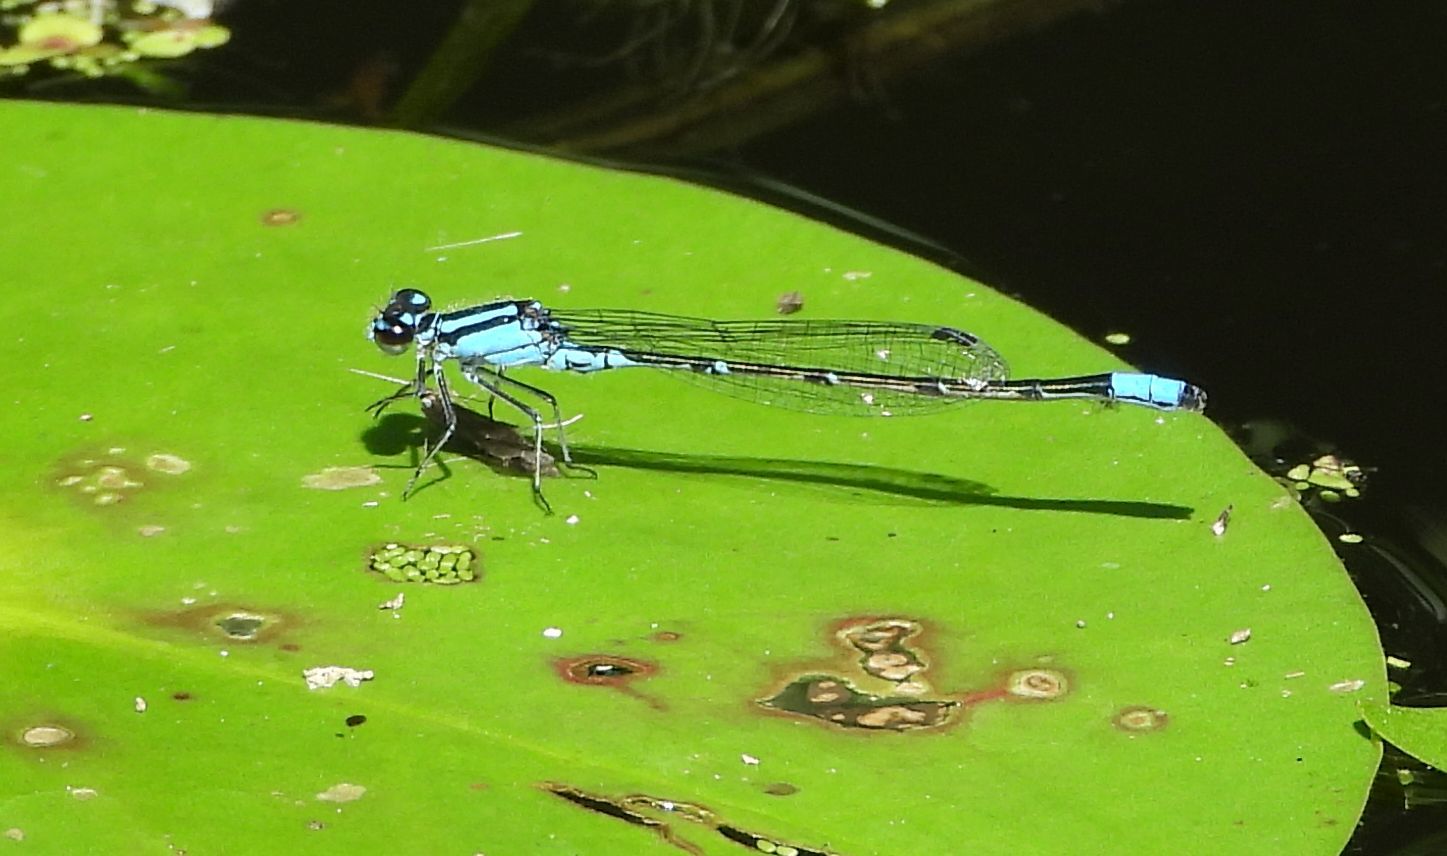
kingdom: Animalia
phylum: Arthropoda
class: Insecta
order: Odonata
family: Coenagrionidae
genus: Enallagma
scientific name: Enallagma geminatum
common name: Skimming bluet
